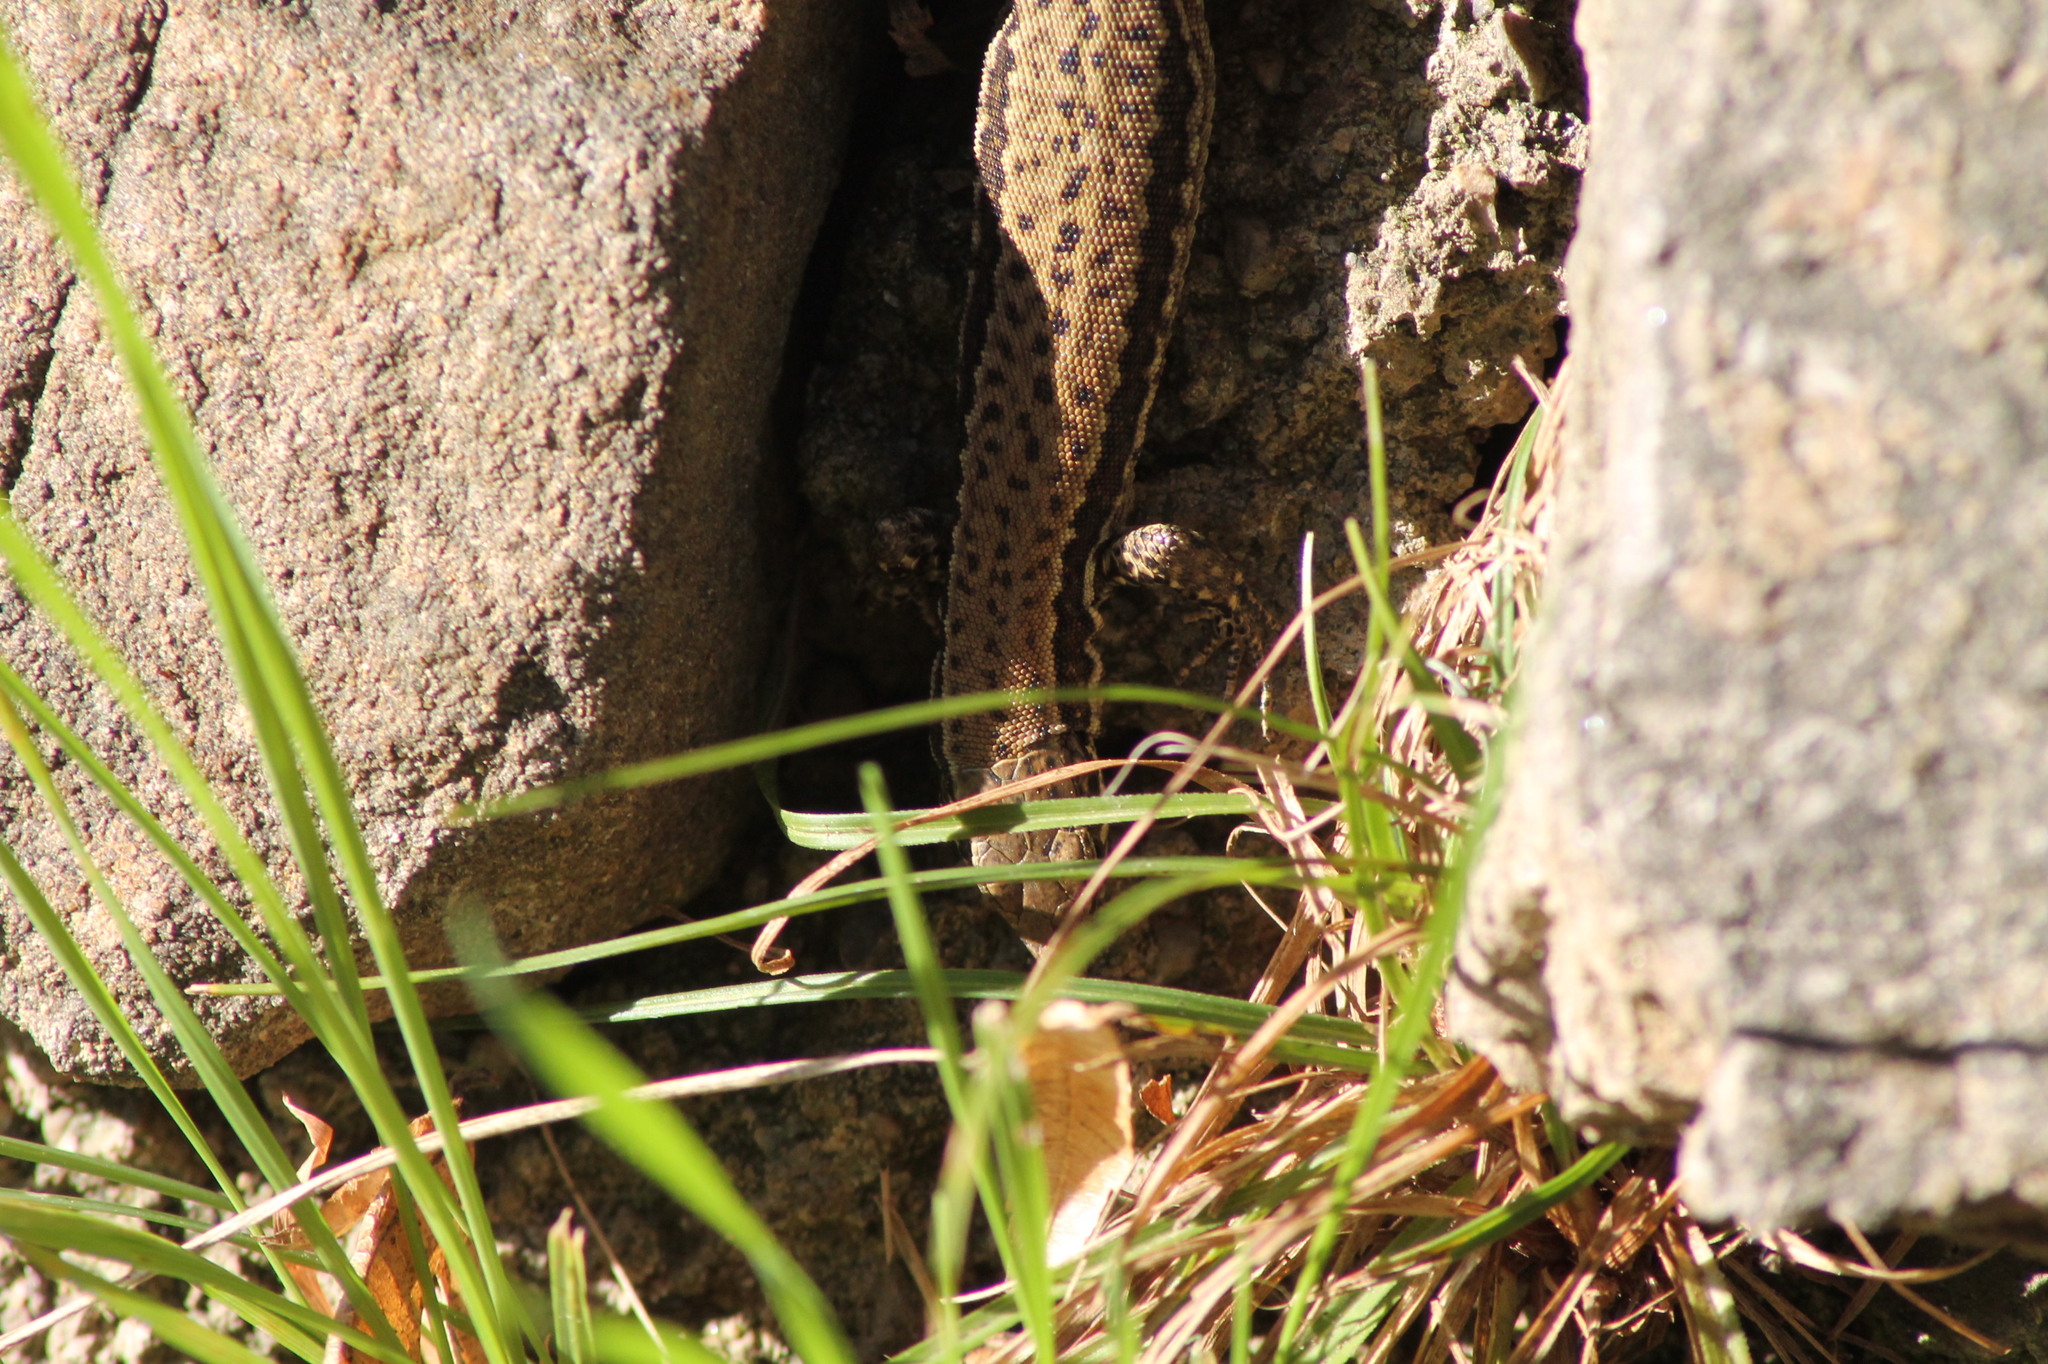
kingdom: Animalia
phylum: Chordata
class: Squamata
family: Lacertidae
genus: Podarcis
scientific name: Podarcis muralis
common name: Common wall lizard
